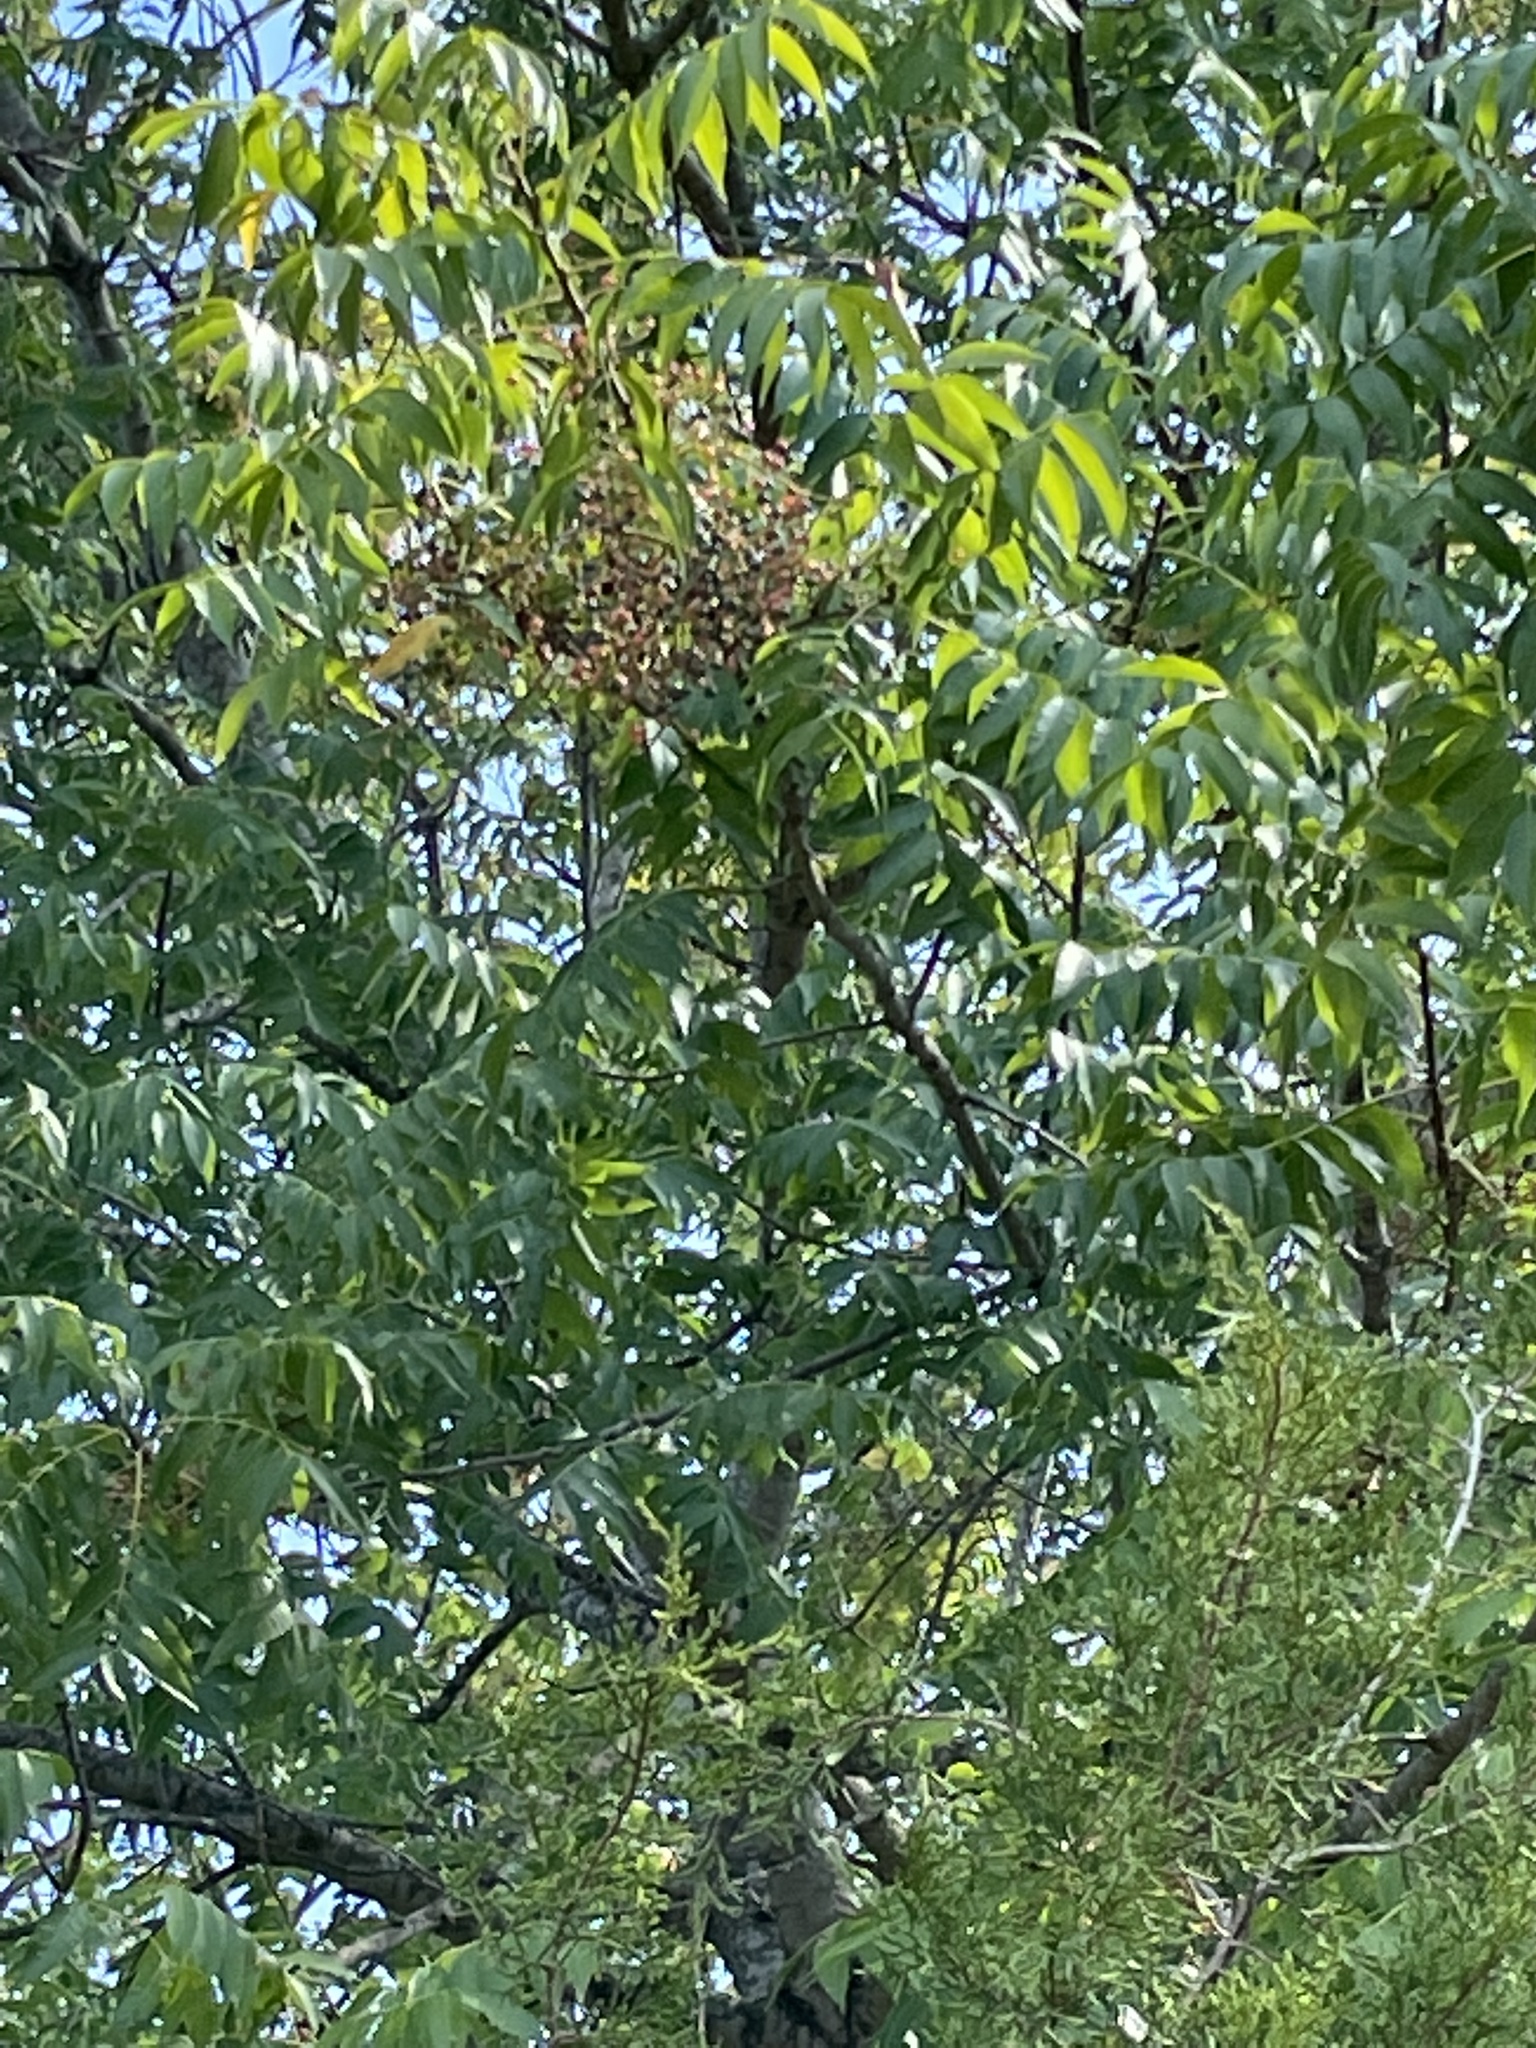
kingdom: Plantae
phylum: Tracheophyta
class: Magnoliopsida
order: Sapindales
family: Anacardiaceae
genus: Pistacia
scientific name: Pistacia chinensis
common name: Chinese pistache
